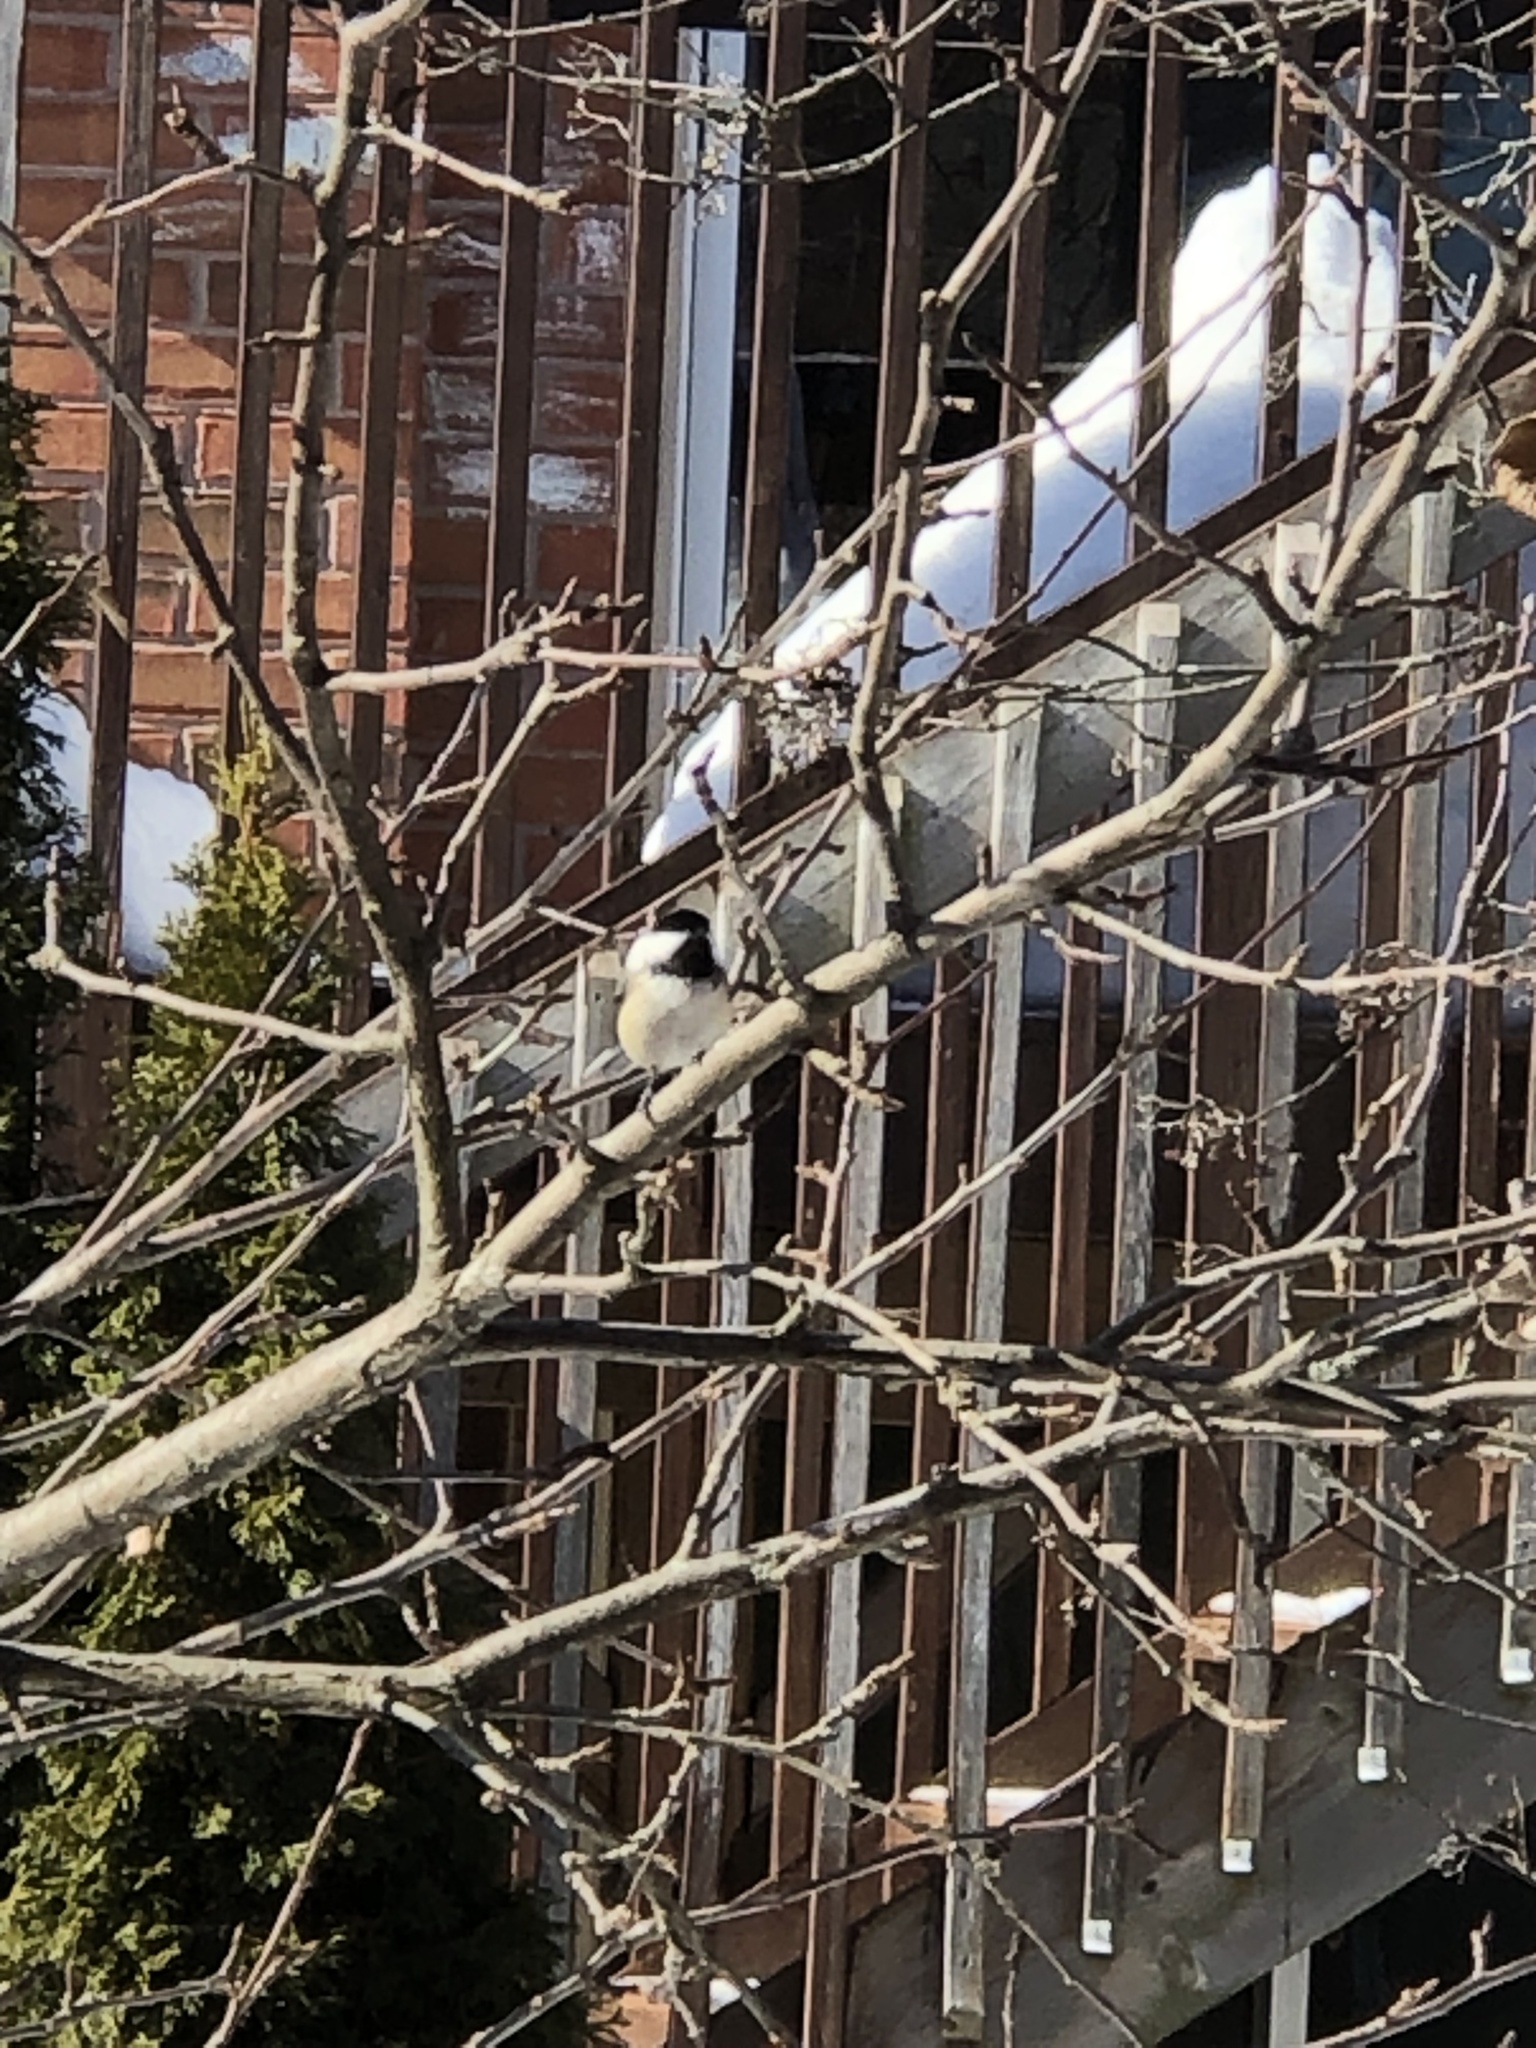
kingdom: Animalia
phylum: Chordata
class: Aves
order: Passeriformes
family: Paridae
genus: Poecile
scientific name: Poecile atricapillus
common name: Black-capped chickadee
